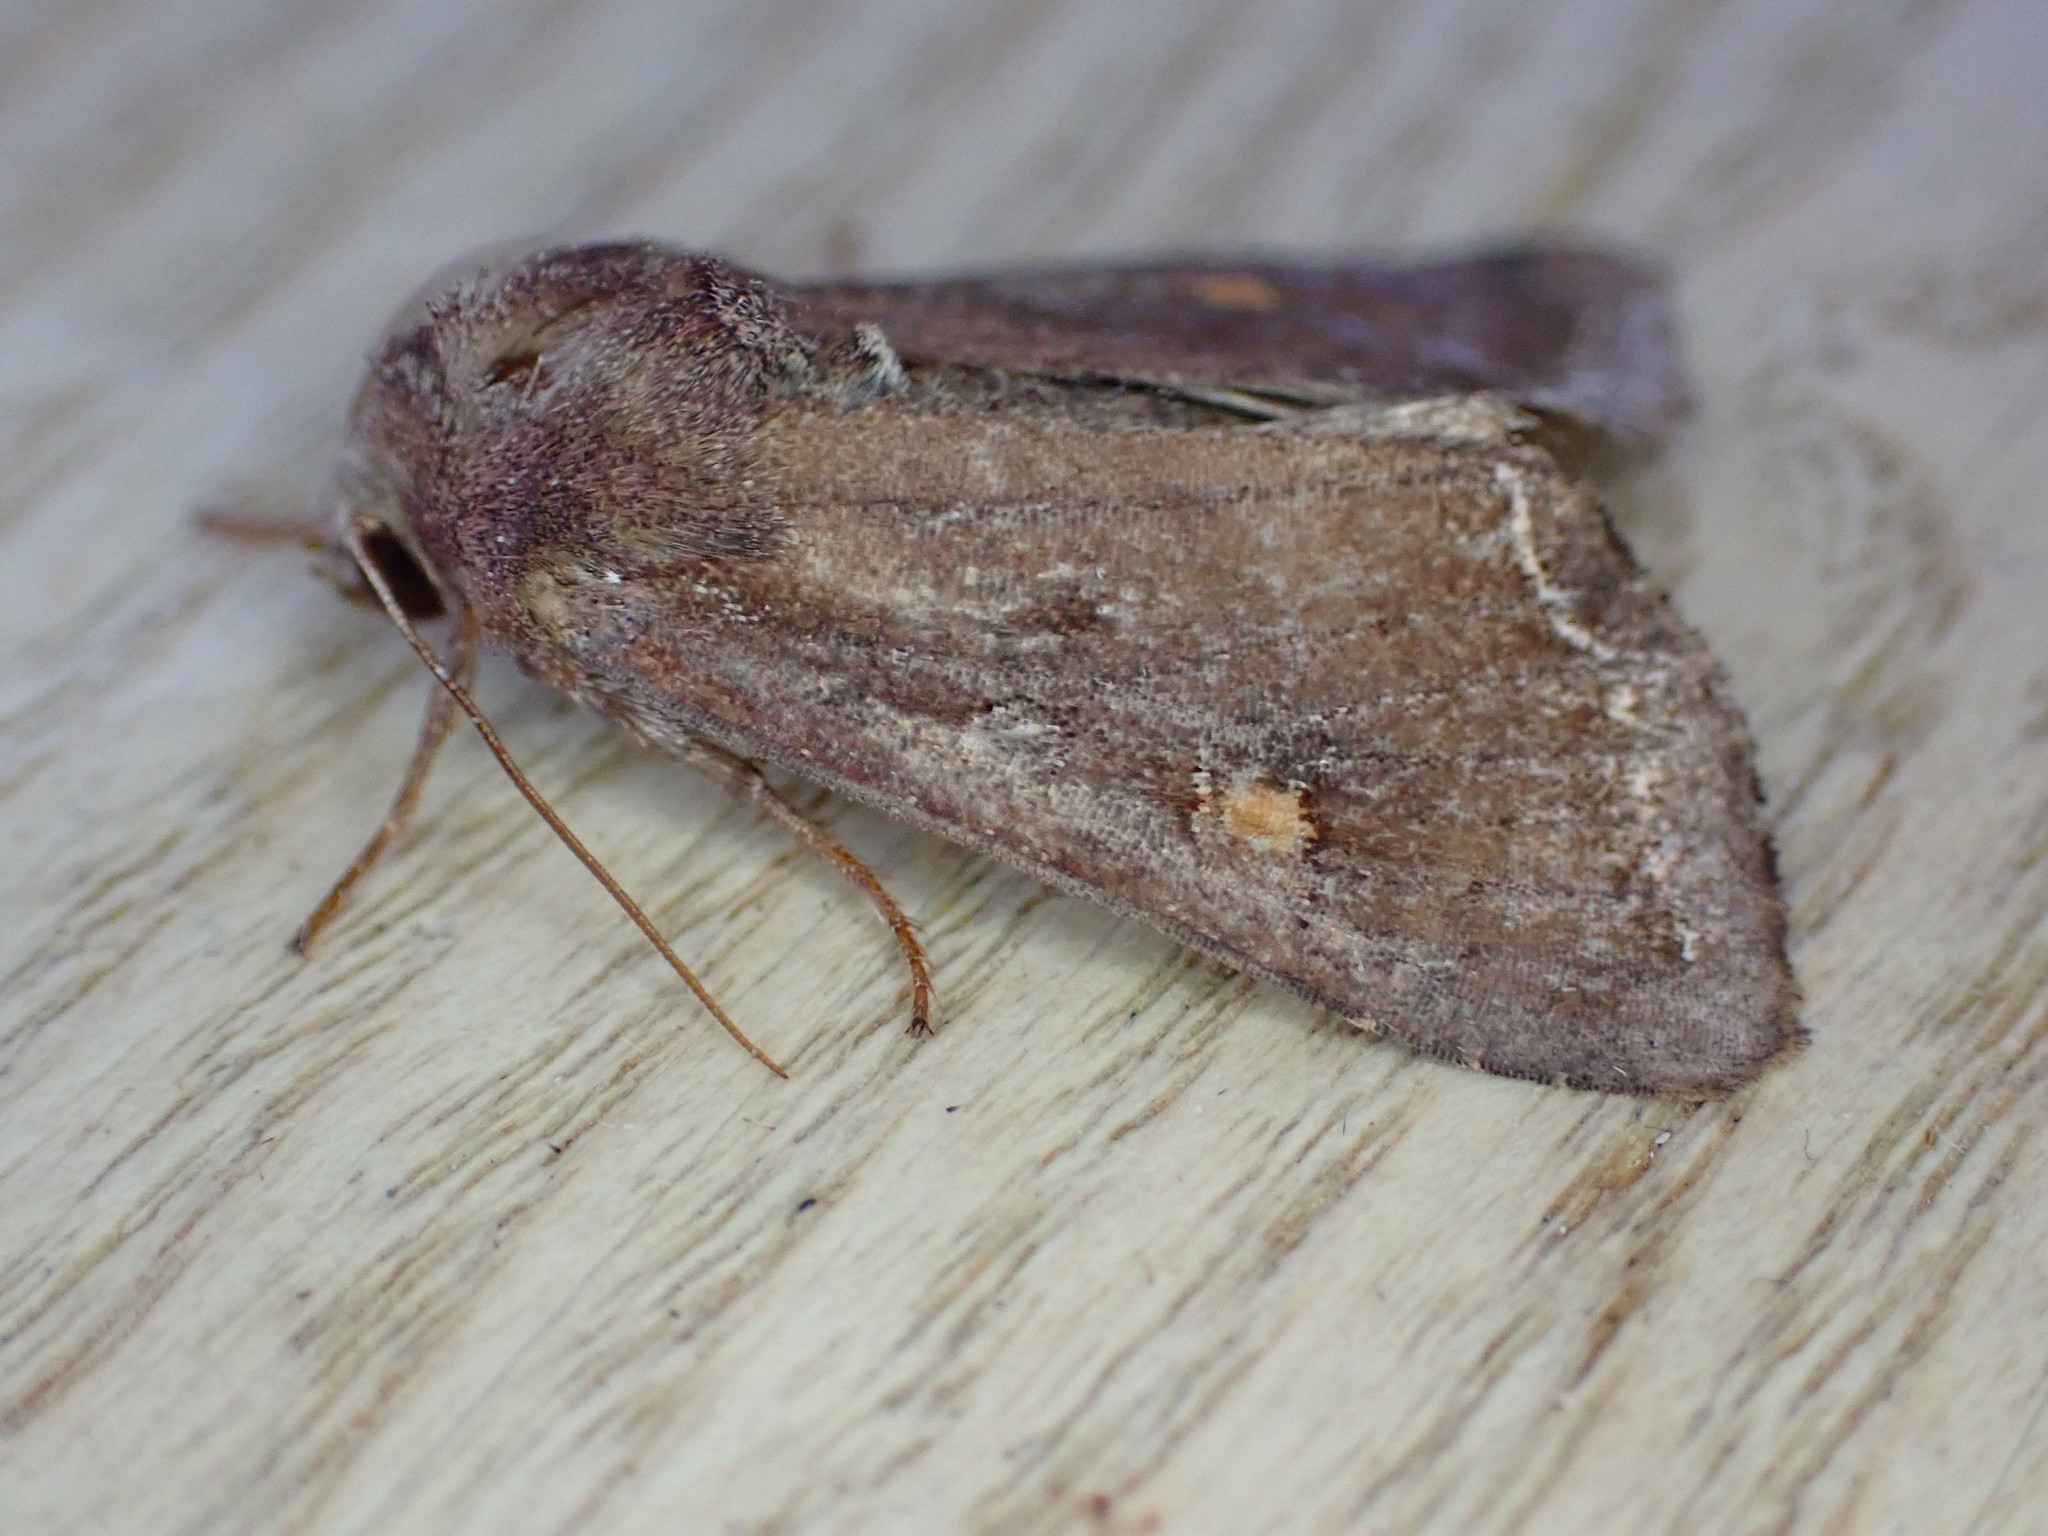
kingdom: Animalia
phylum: Arthropoda
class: Insecta
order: Lepidoptera
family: Noctuidae
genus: Lacanobia
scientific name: Lacanobia oleracea
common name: Bright-line brown-eye
